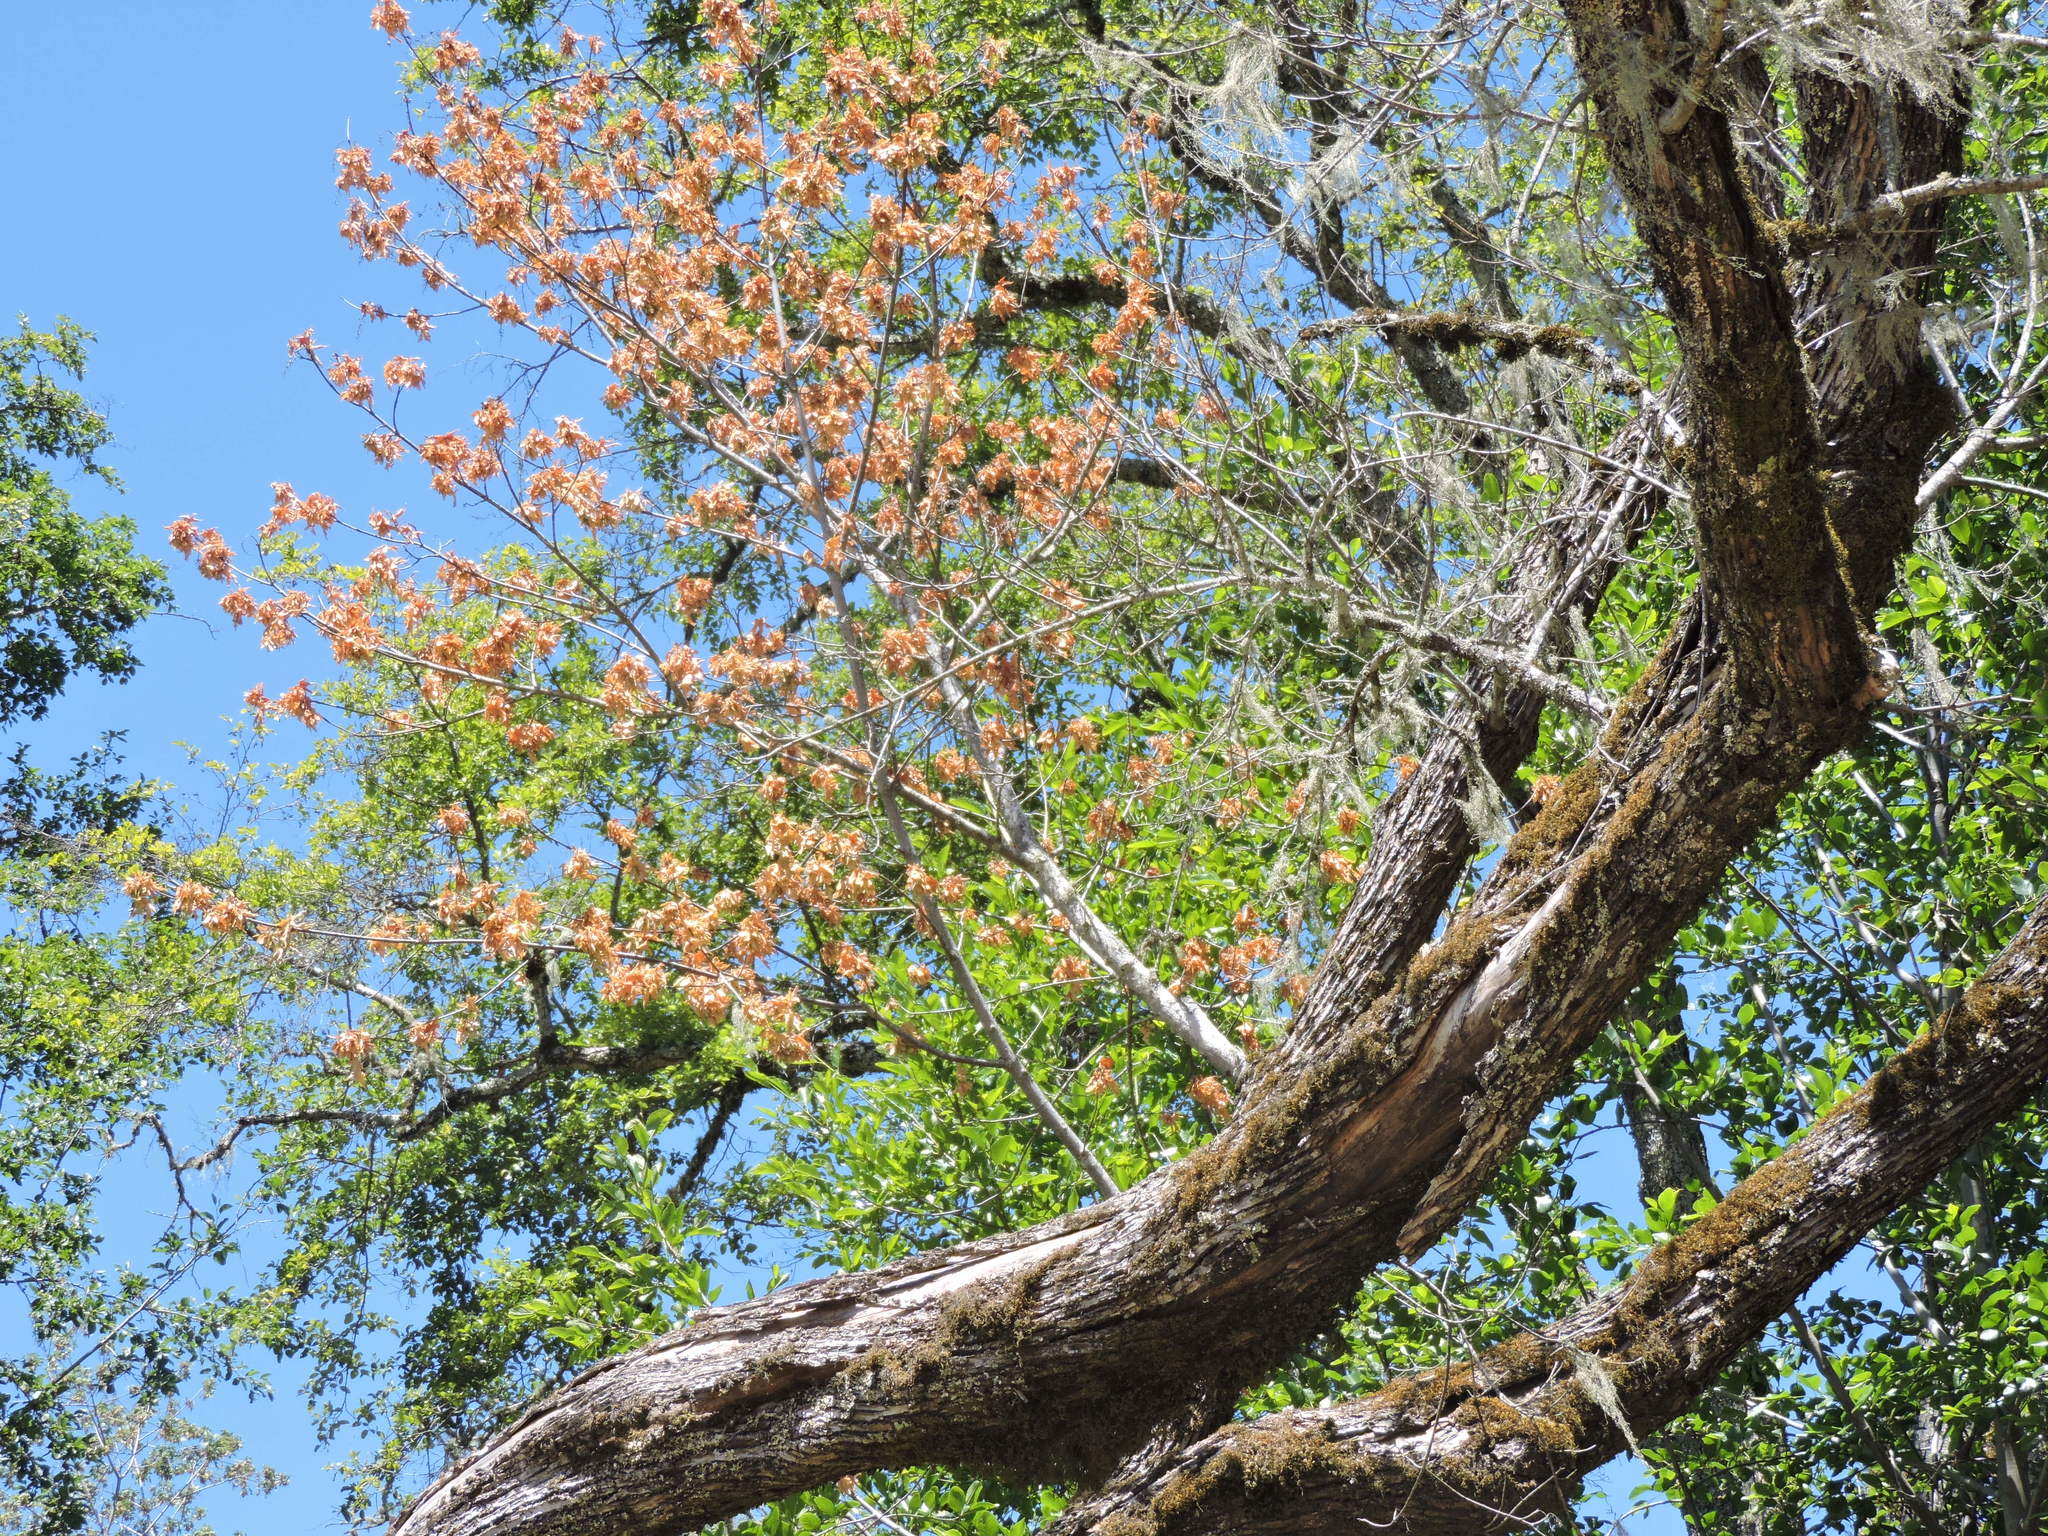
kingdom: Plantae
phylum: Tracheophyta
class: Magnoliopsida
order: Sapindales
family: Sapindaceae
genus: Acer
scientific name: Acer macrophyllum
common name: Oregon maple
